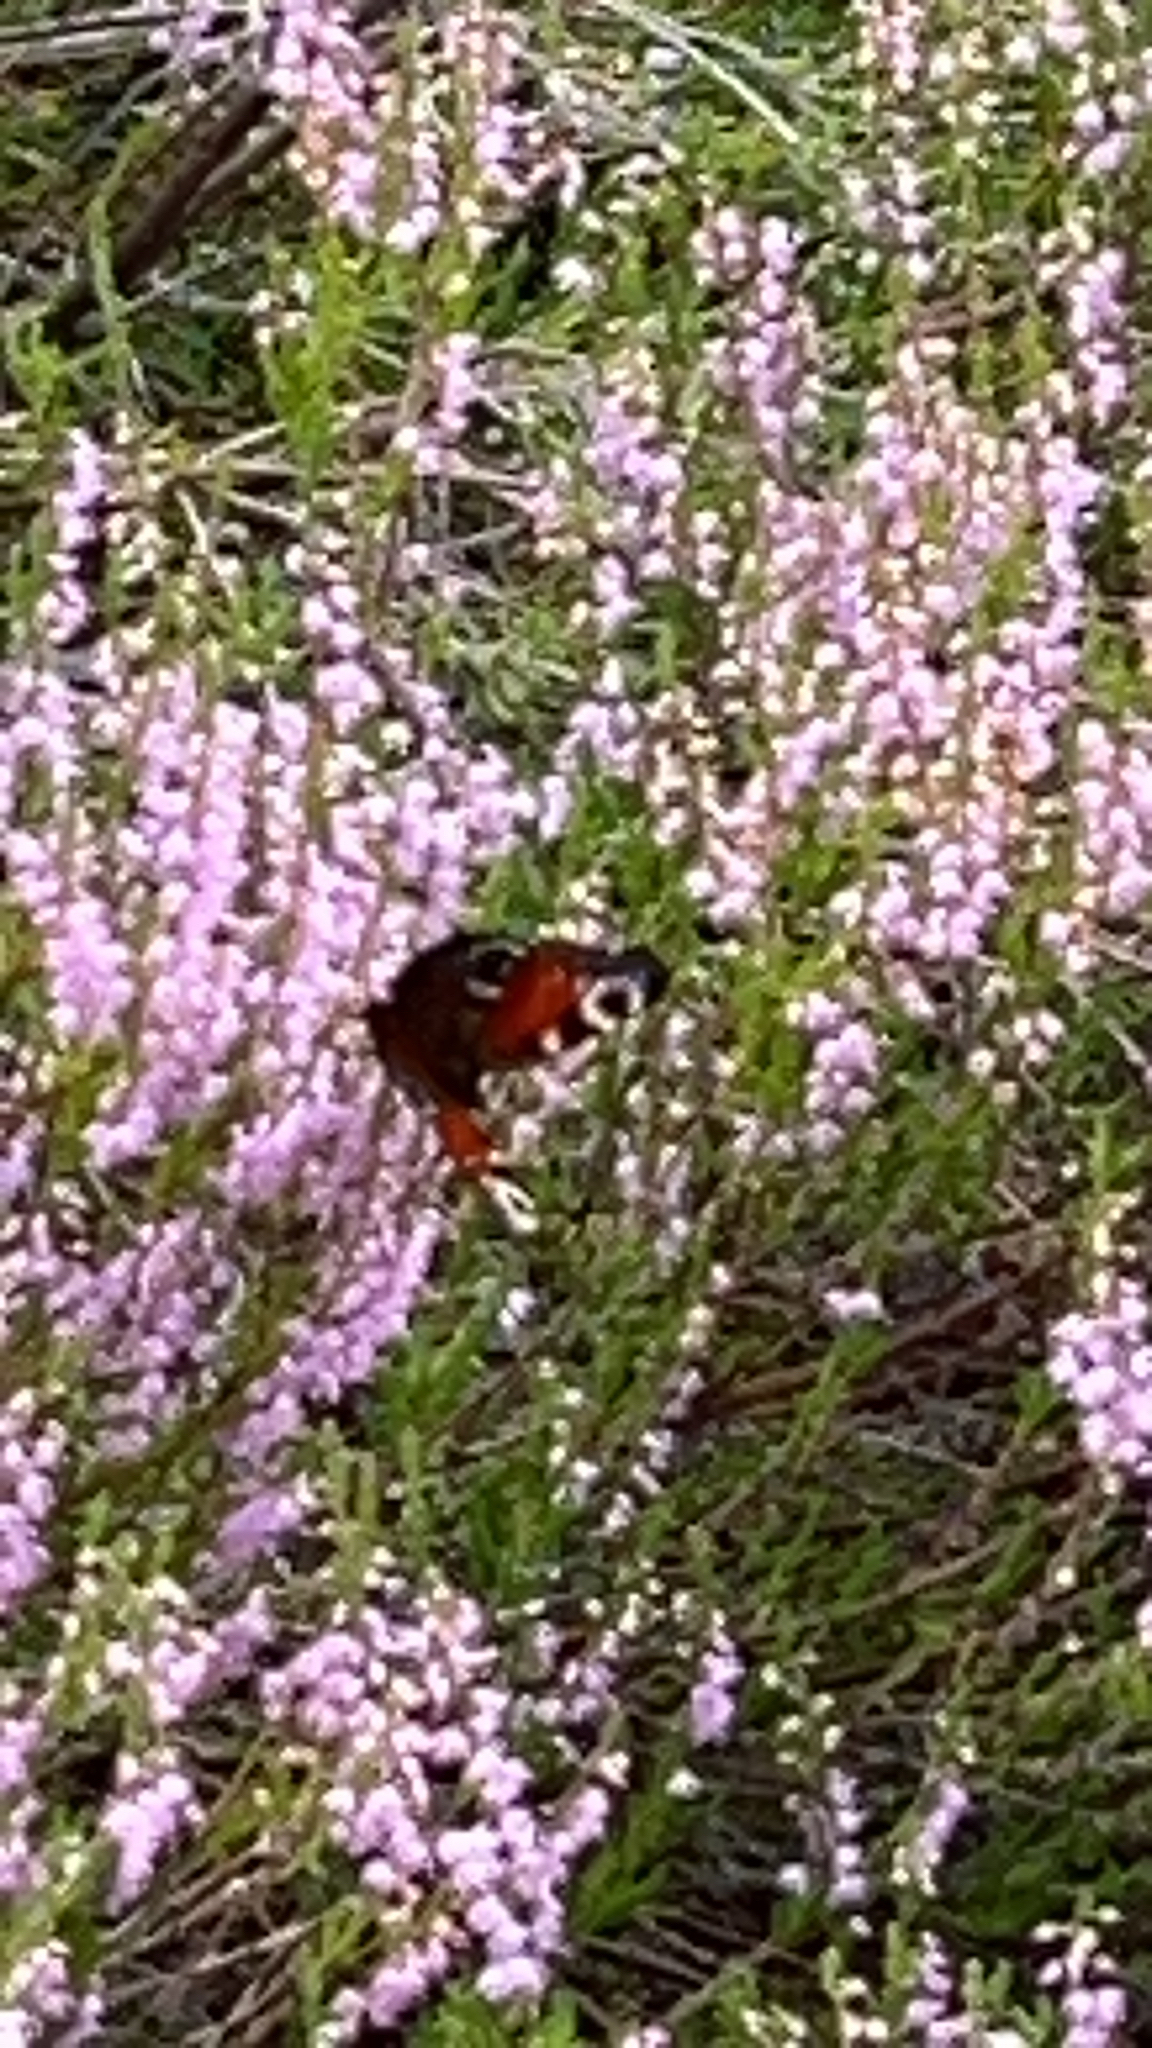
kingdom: Animalia
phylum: Arthropoda
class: Insecta
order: Lepidoptera
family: Nymphalidae
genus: Aglais
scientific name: Aglais io
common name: Peacock
